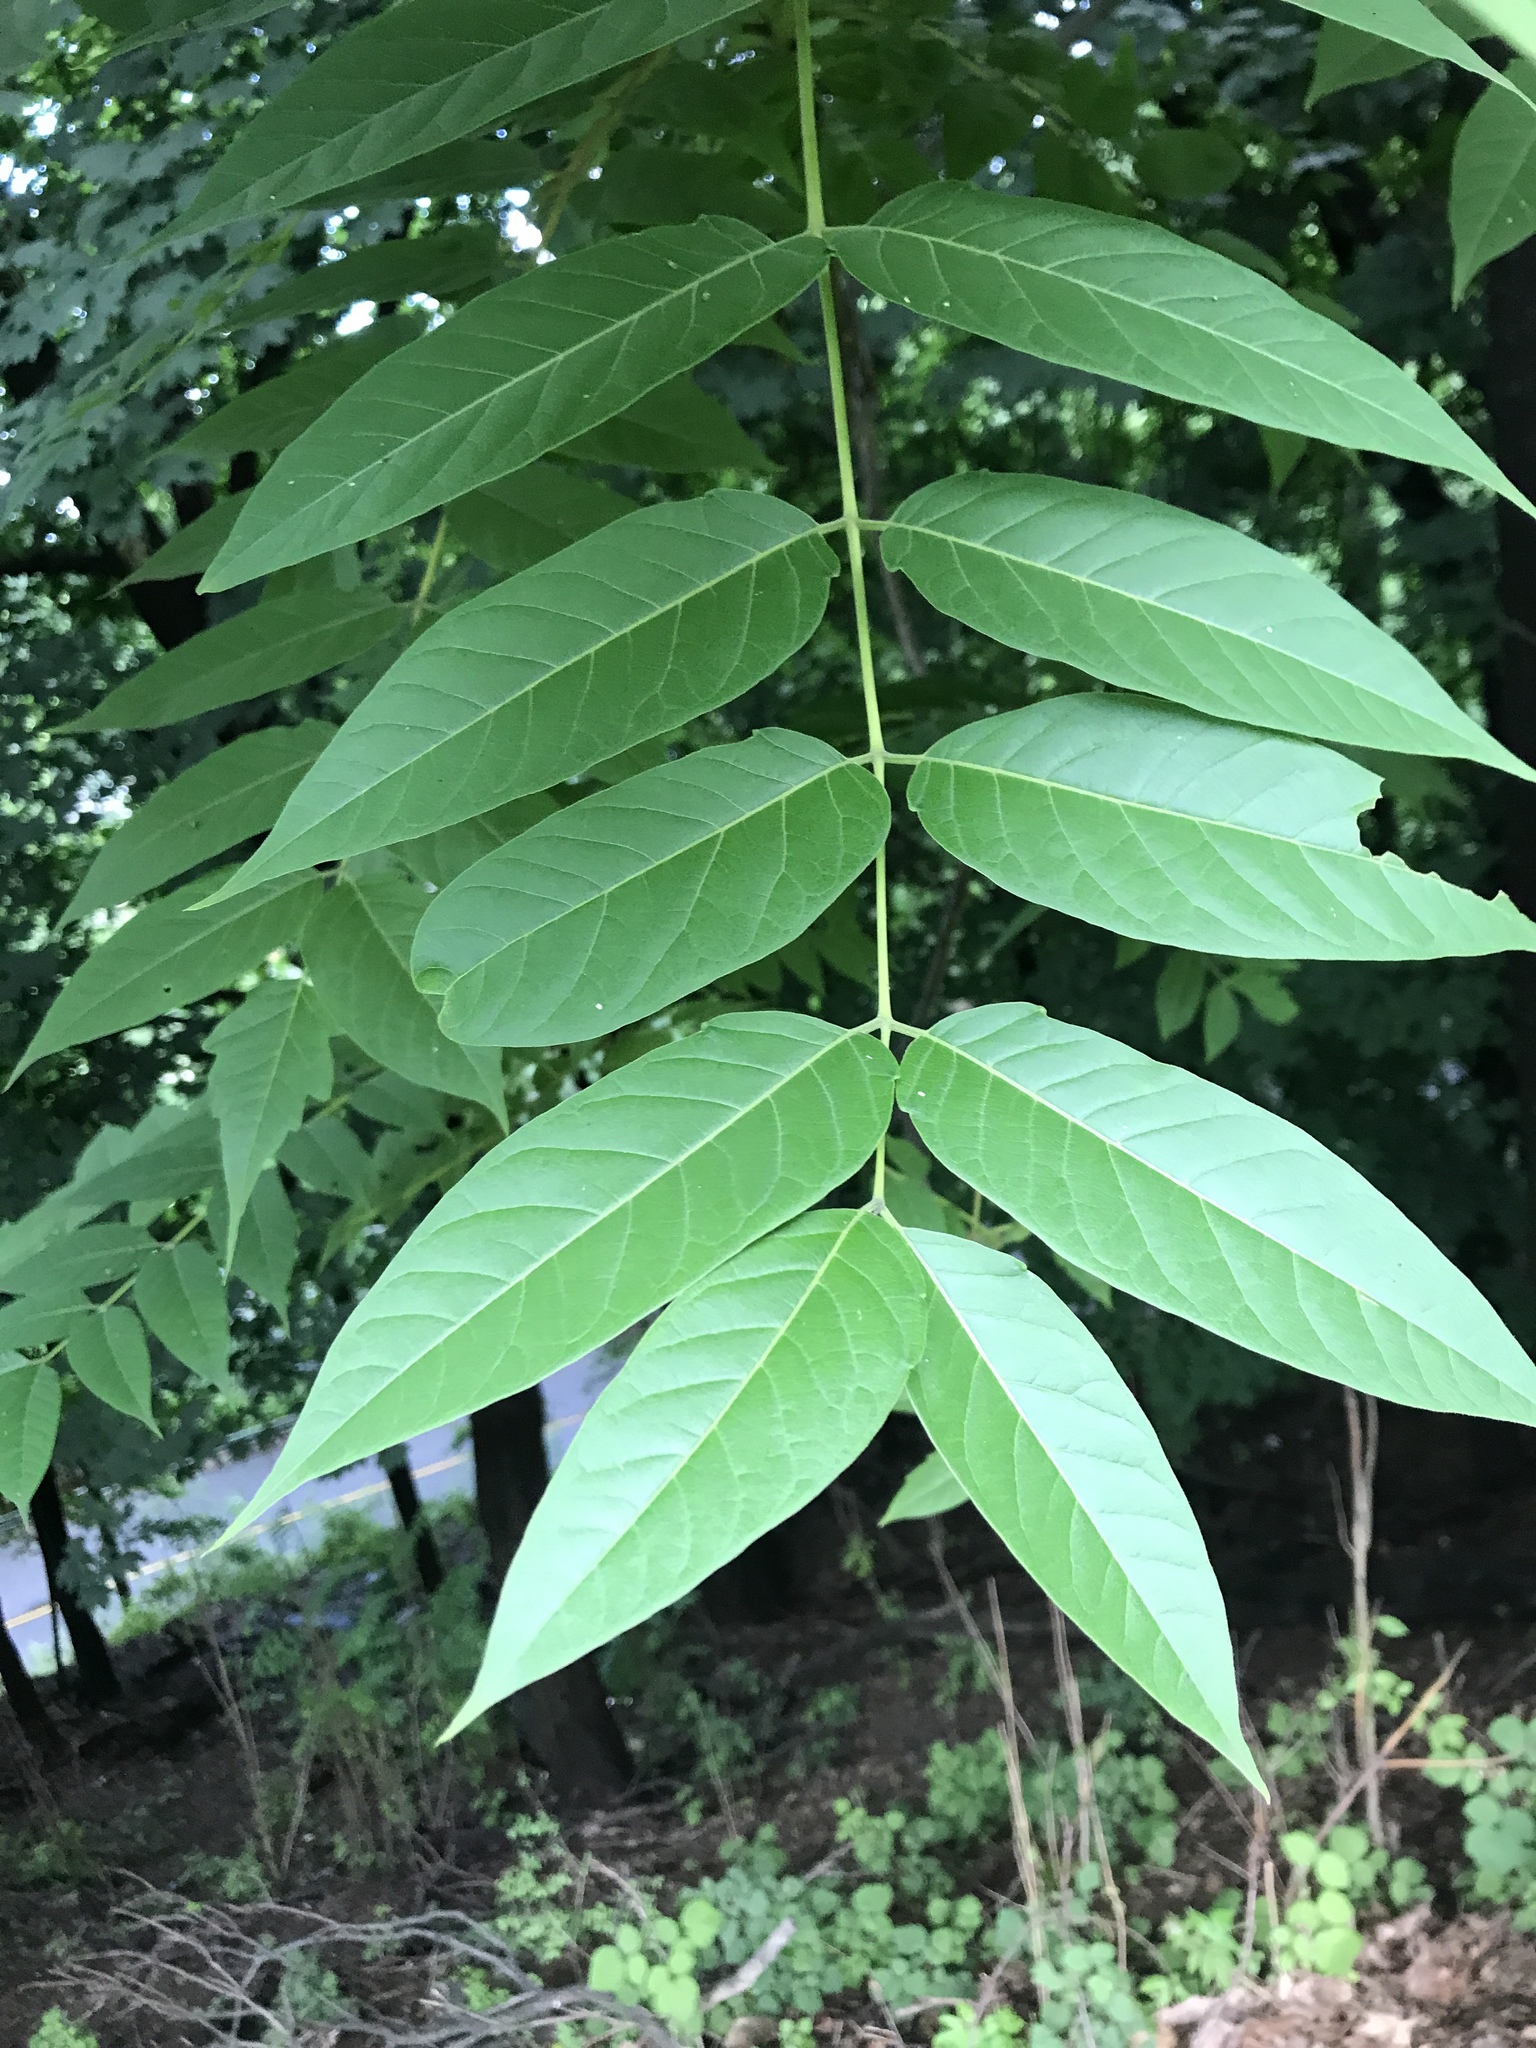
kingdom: Plantae
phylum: Tracheophyta
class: Magnoliopsida
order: Sapindales
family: Simaroubaceae
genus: Ailanthus
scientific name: Ailanthus altissima
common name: Tree-of-heaven
